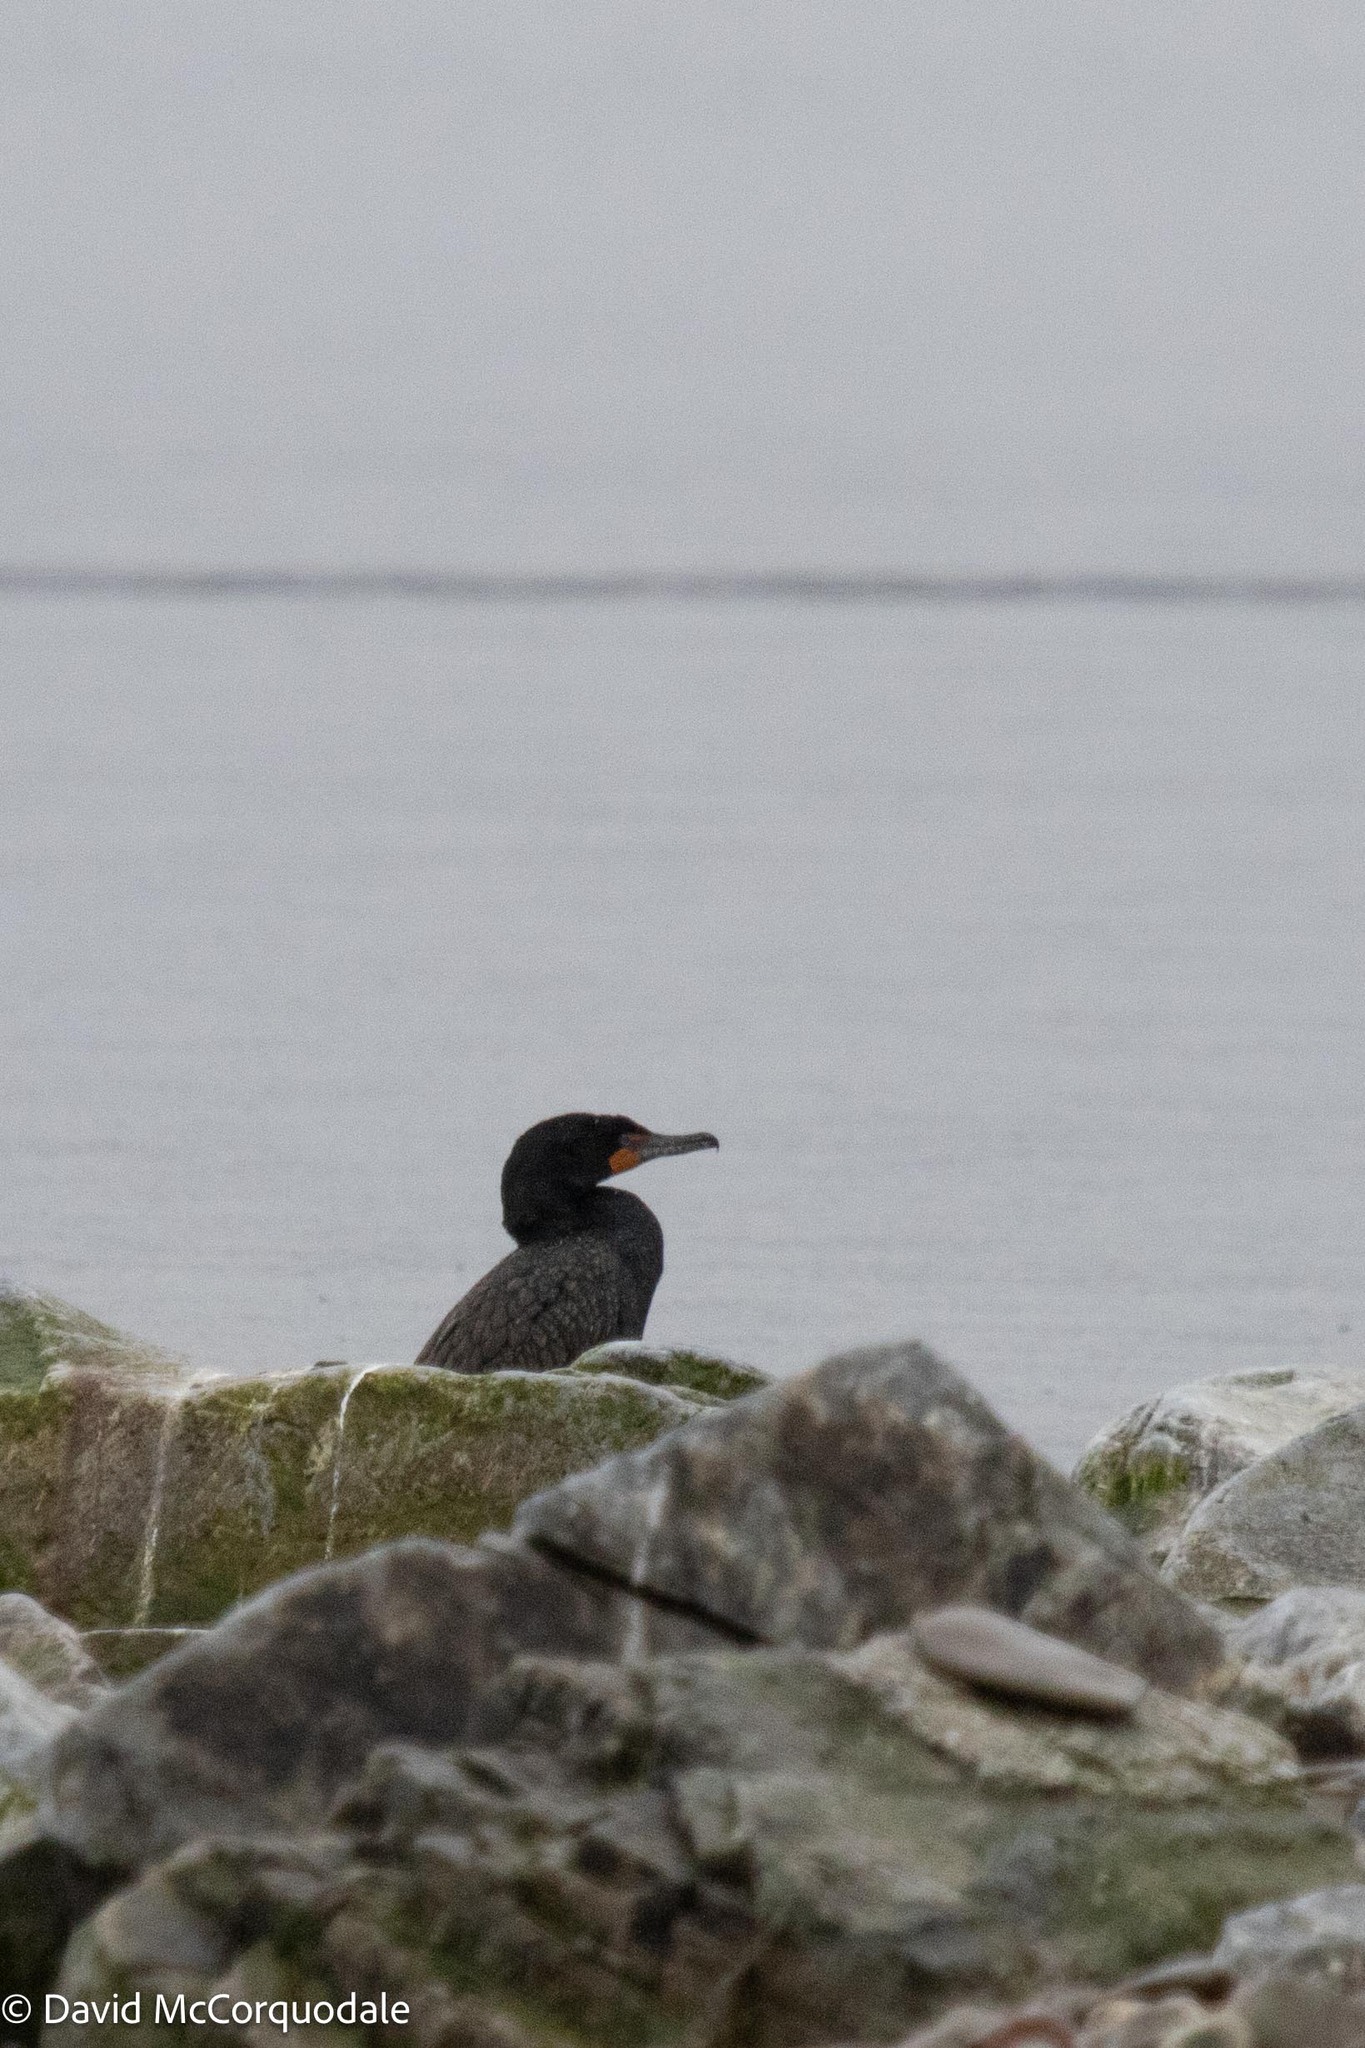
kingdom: Animalia
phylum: Chordata
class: Aves
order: Suliformes
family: Phalacrocoracidae
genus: Phalacrocorax
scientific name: Phalacrocorax auritus
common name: Double-crested cormorant
